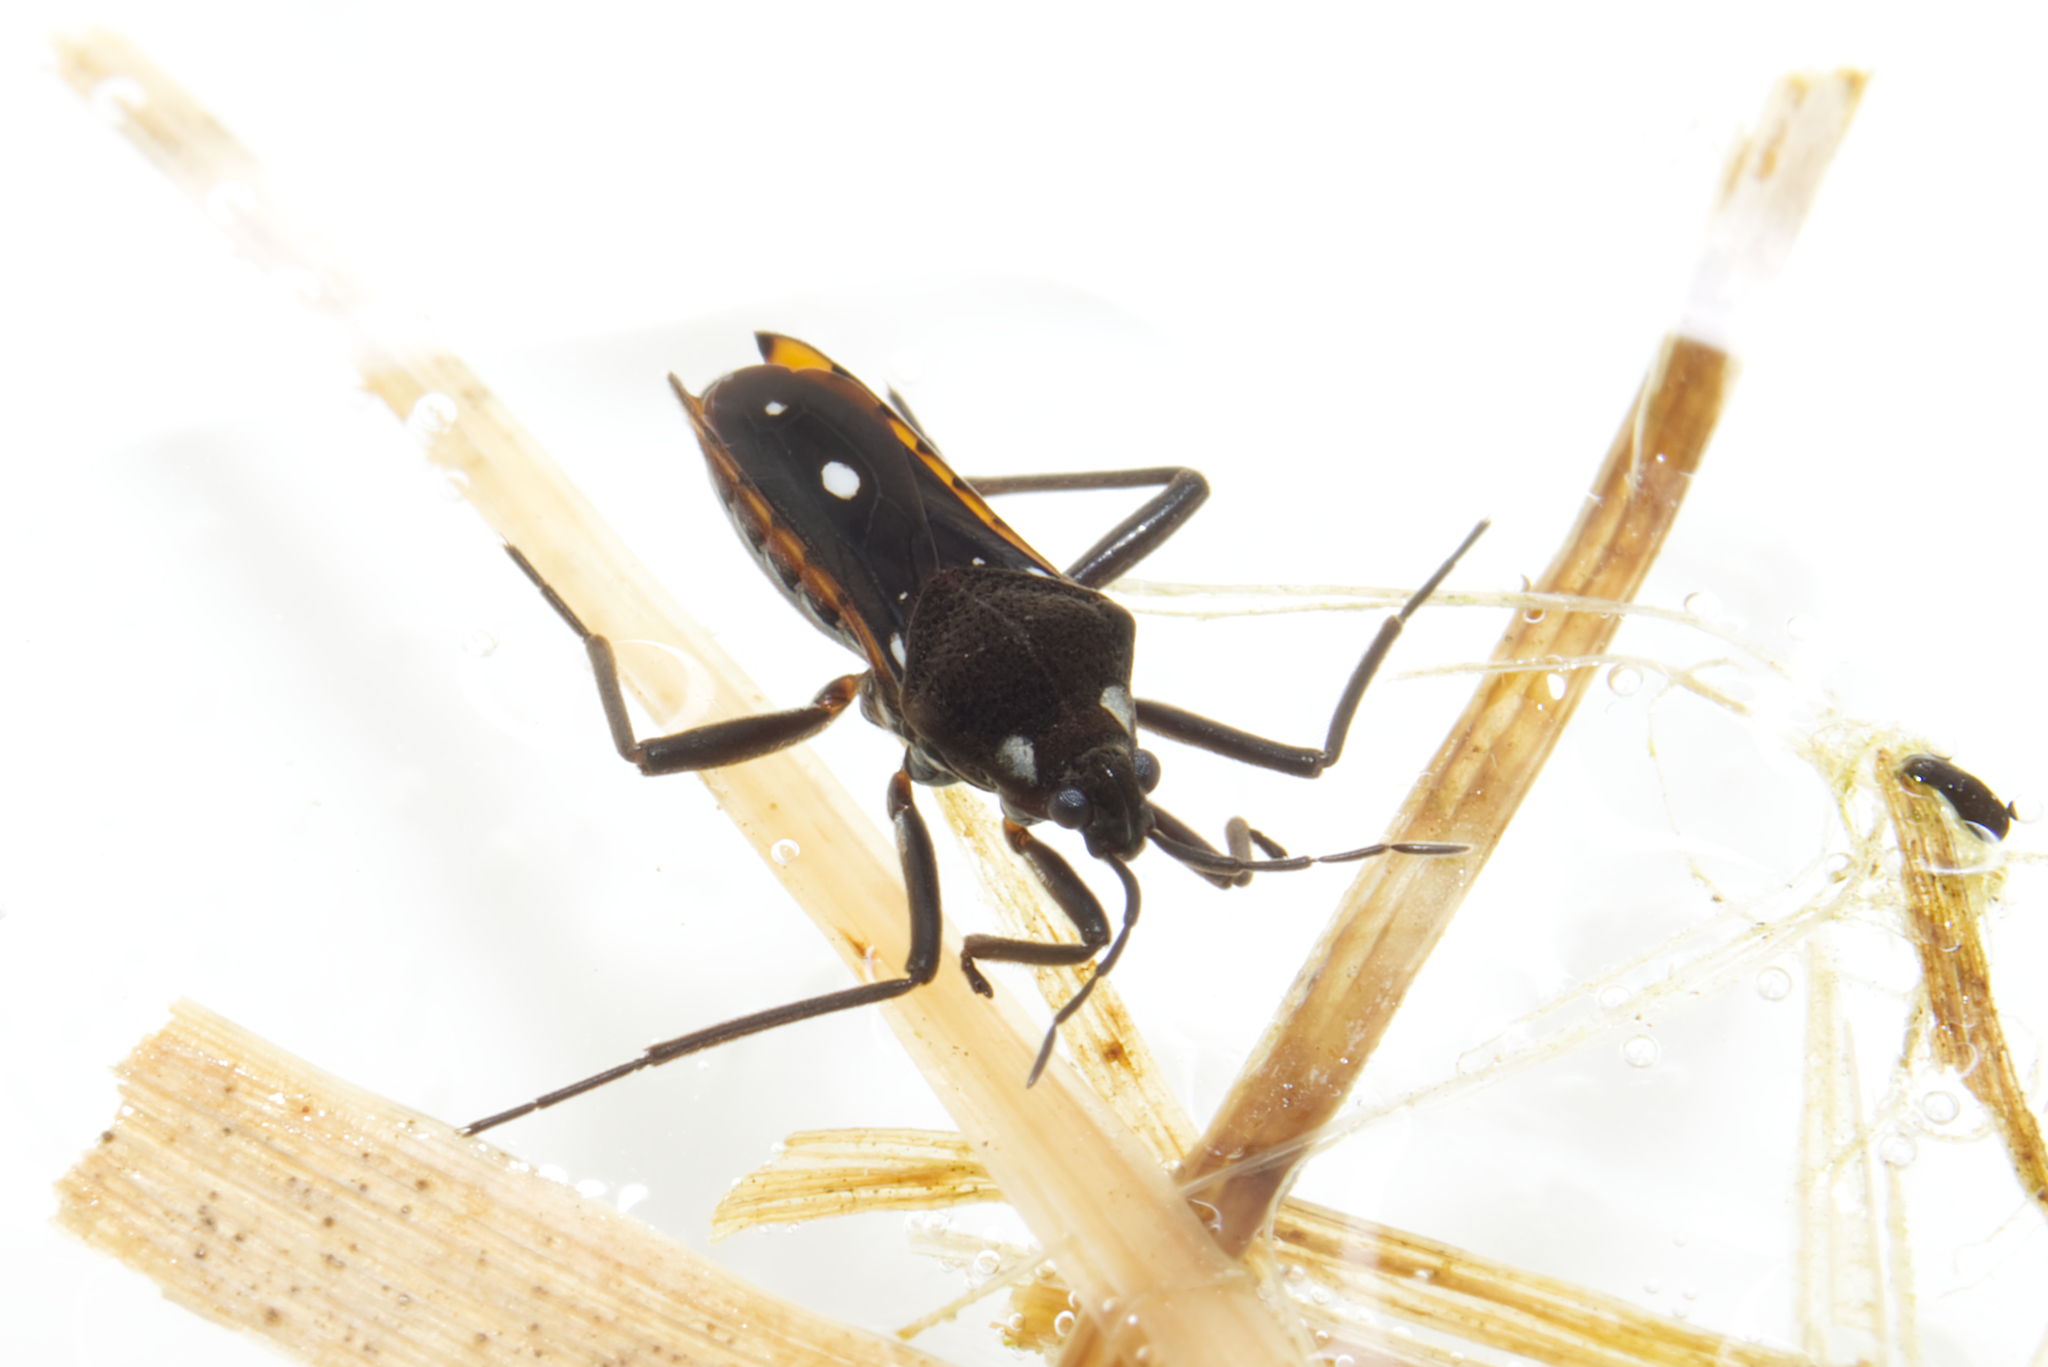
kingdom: Animalia
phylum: Arthropoda
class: Insecta
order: Hemiptera
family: Veliidae
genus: Velia
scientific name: Velia caprai
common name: Water cricket
